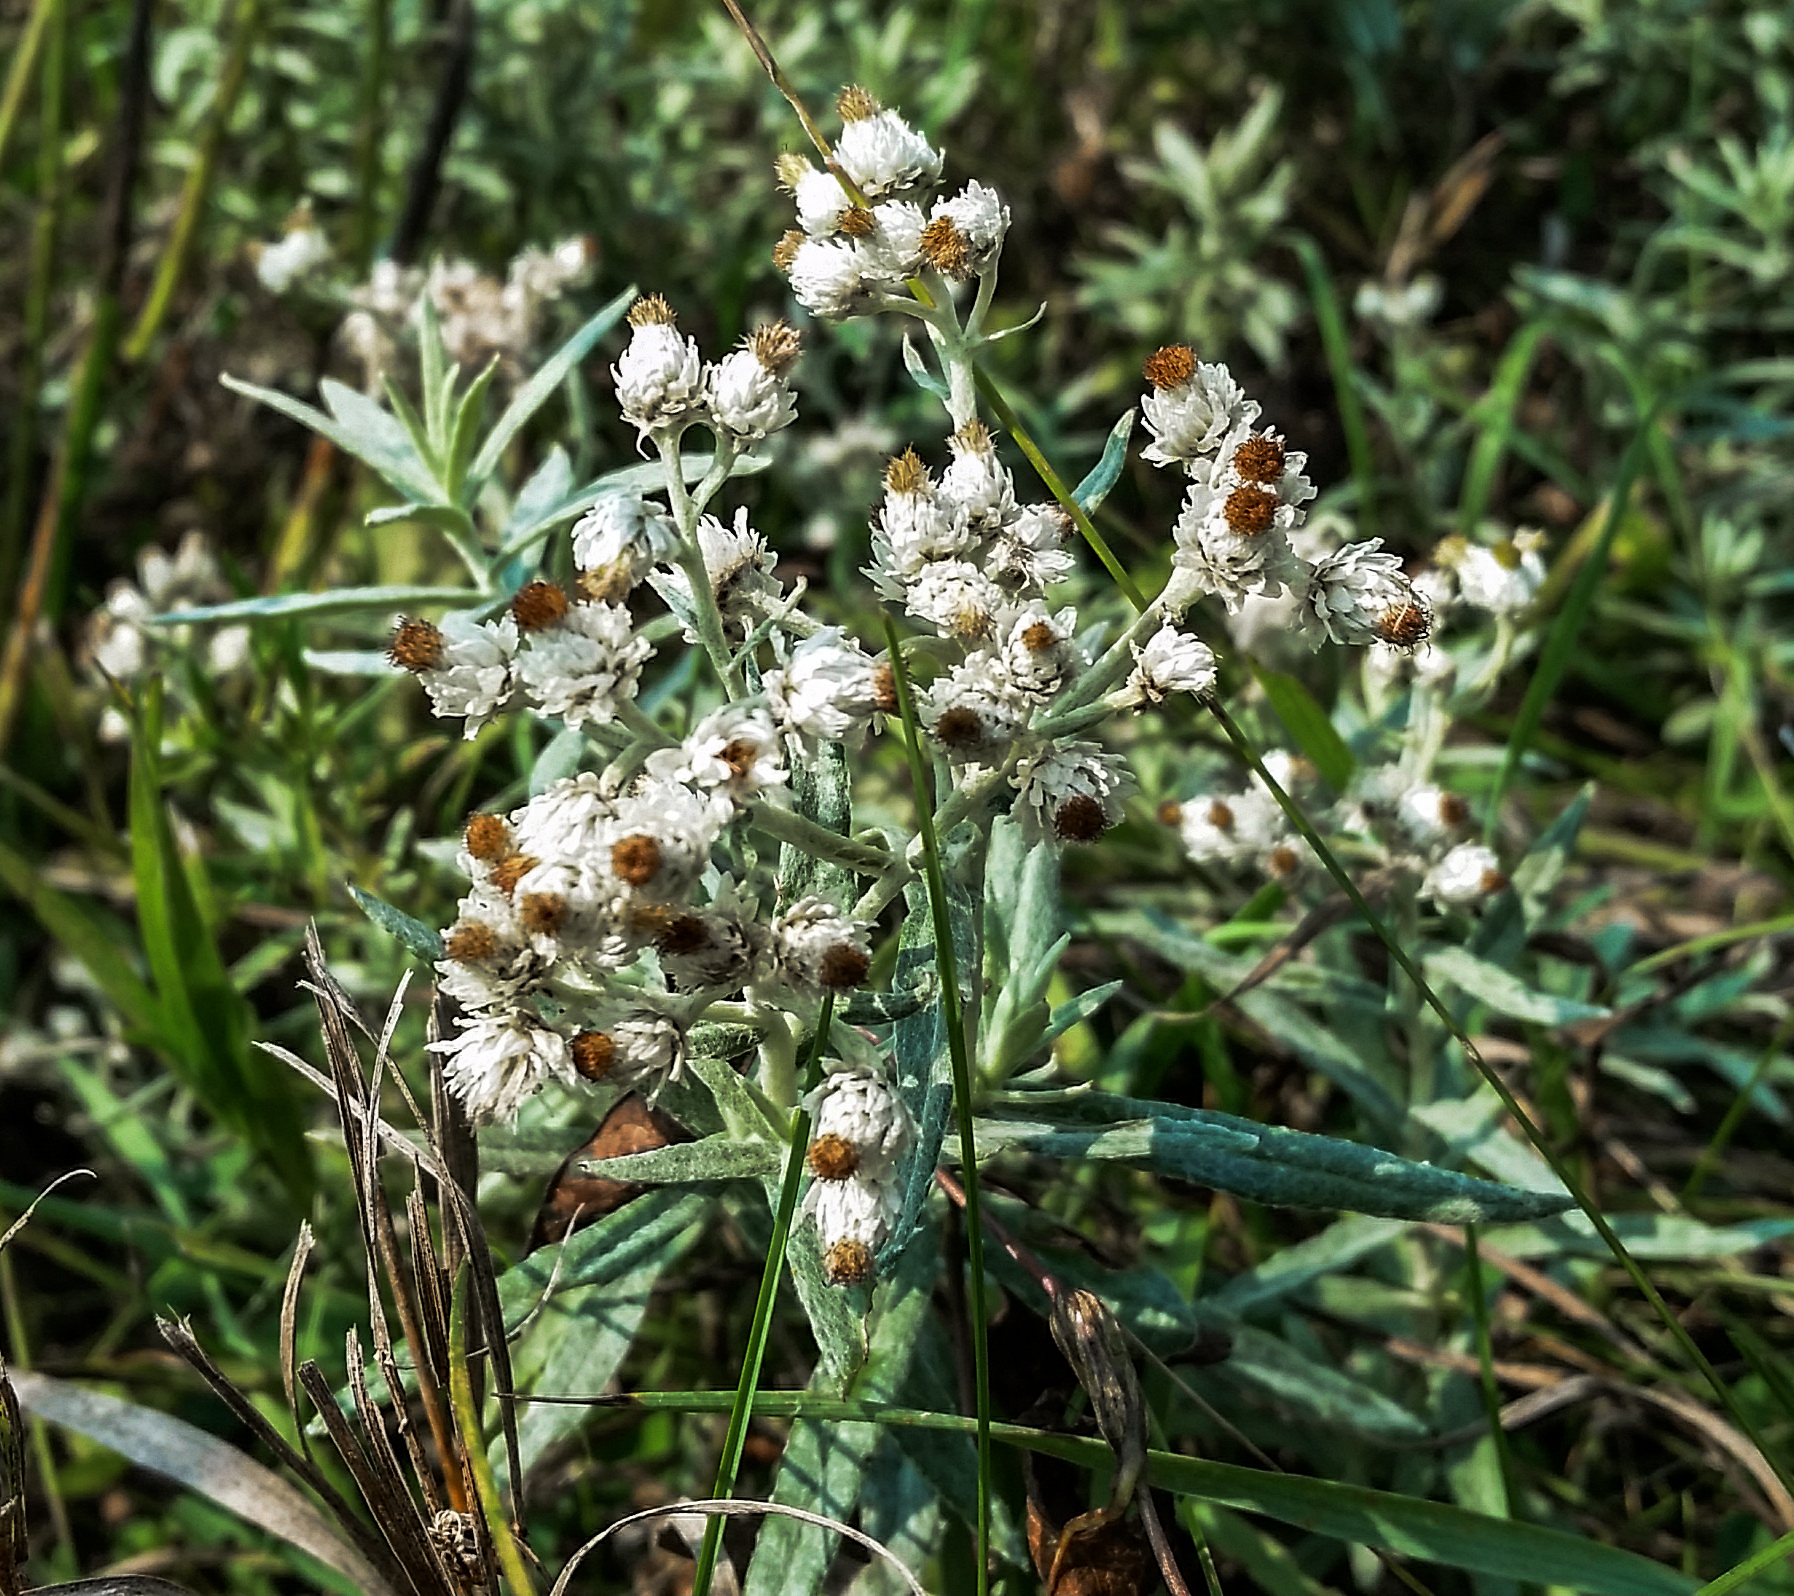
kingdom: Plantae
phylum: Tracheophyta
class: Magnoliopsida
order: Asterales
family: Asteraceae
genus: Anaphalis
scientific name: Anaphalis margaritacea
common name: Pearly everlasting
